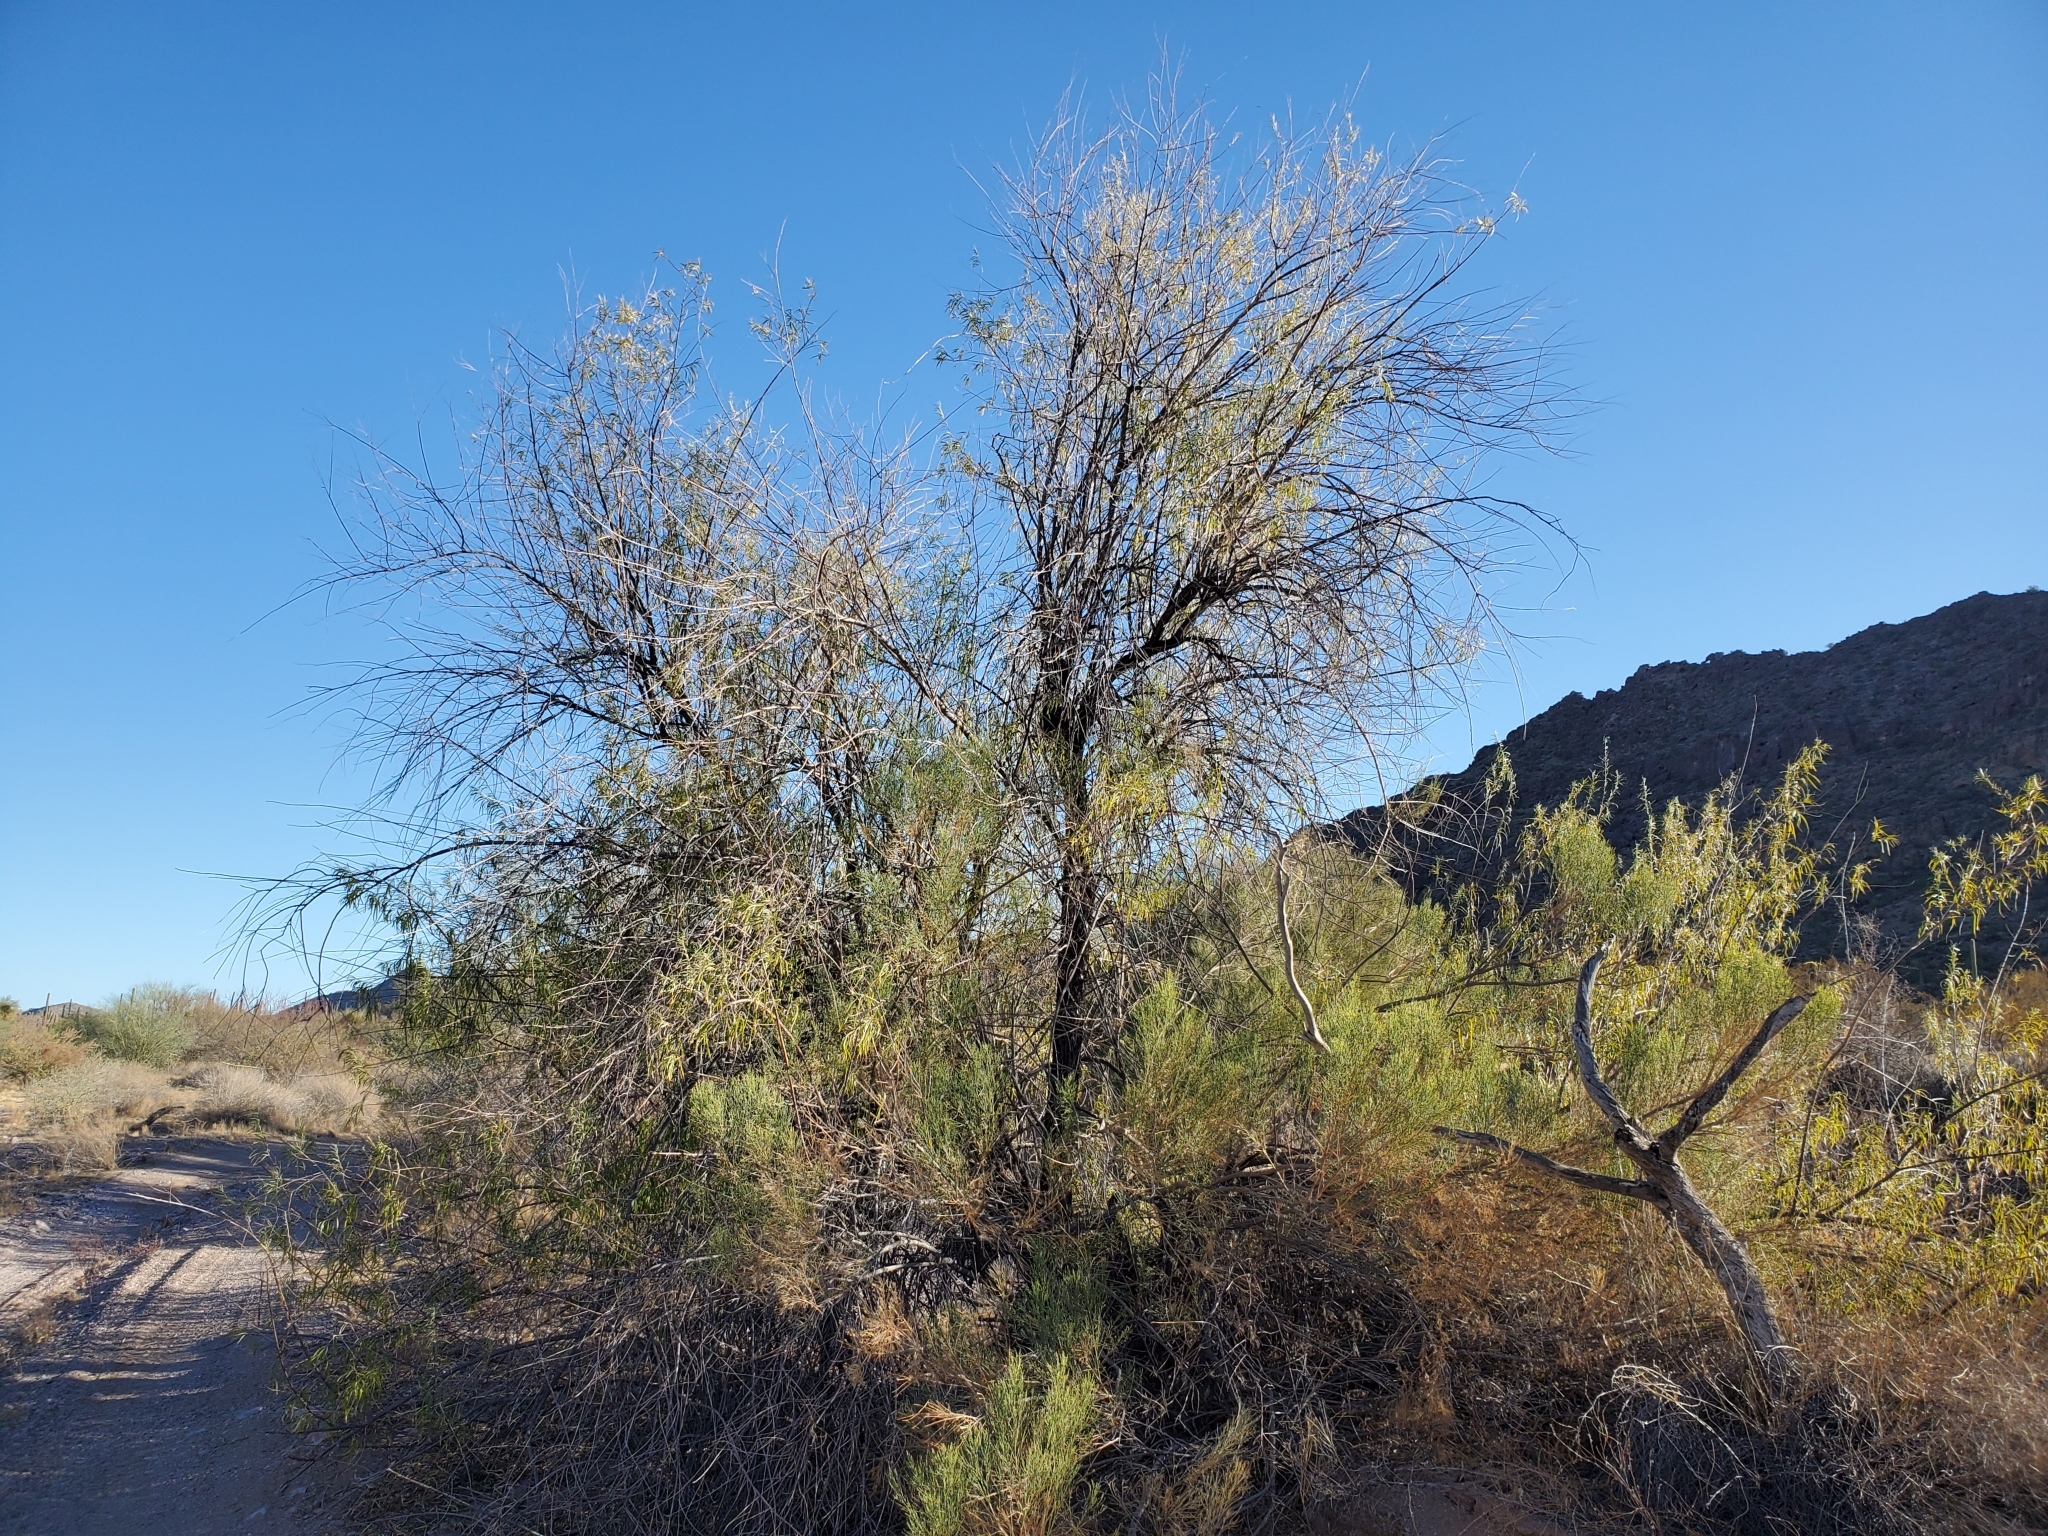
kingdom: Plantae
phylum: Tracheophyta
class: Magnoliopsida
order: Lamiales
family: Bignoniaceae
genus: Chilopsis
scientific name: Chilopsis linearis
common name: Desert-willow
